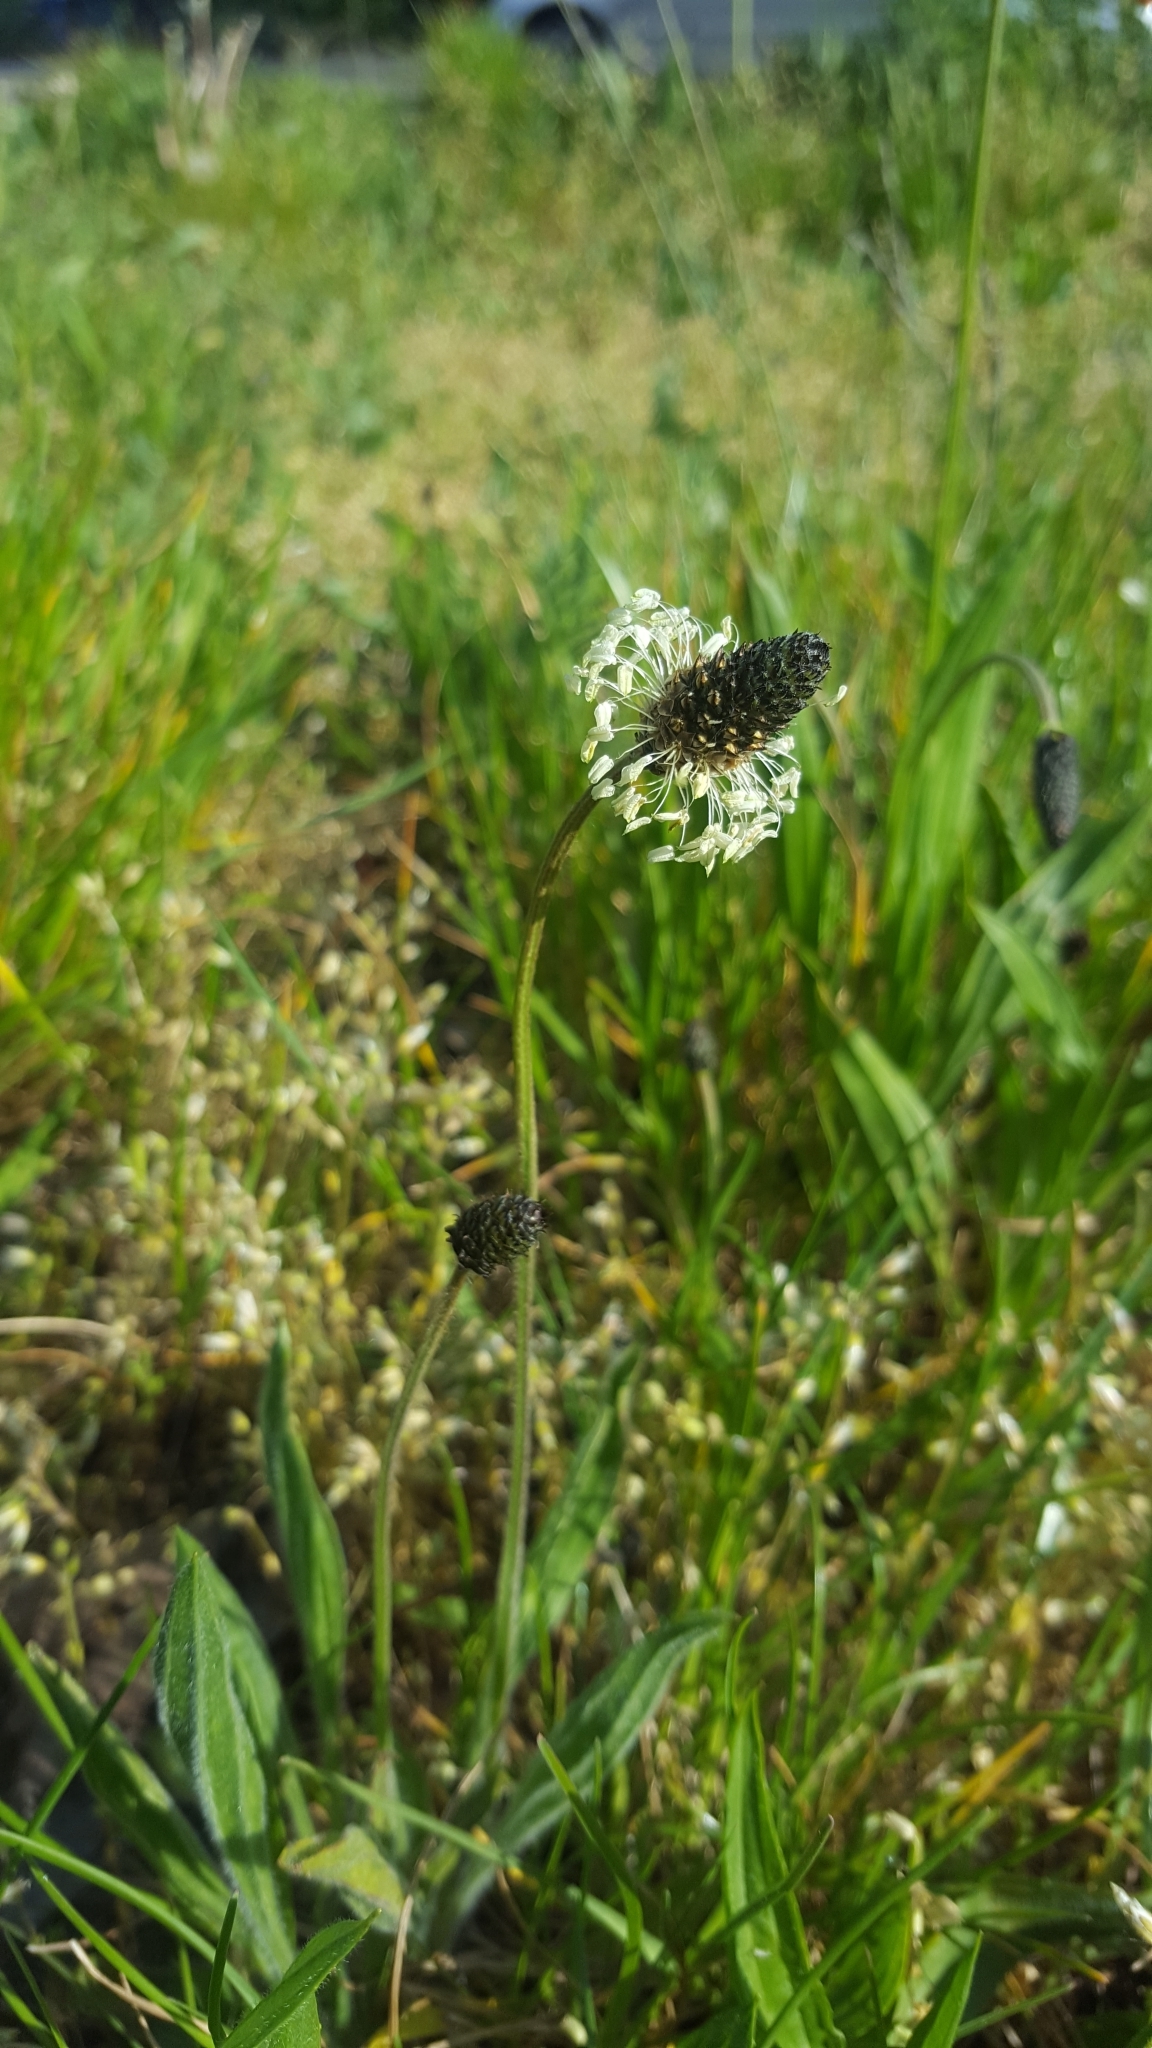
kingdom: Plantae
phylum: Tracheophyta
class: Magnoliopsida
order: Lamiales
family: Plantaginaceae
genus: Plantago
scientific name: Plantago lanceolata
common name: Ribwort plantain
